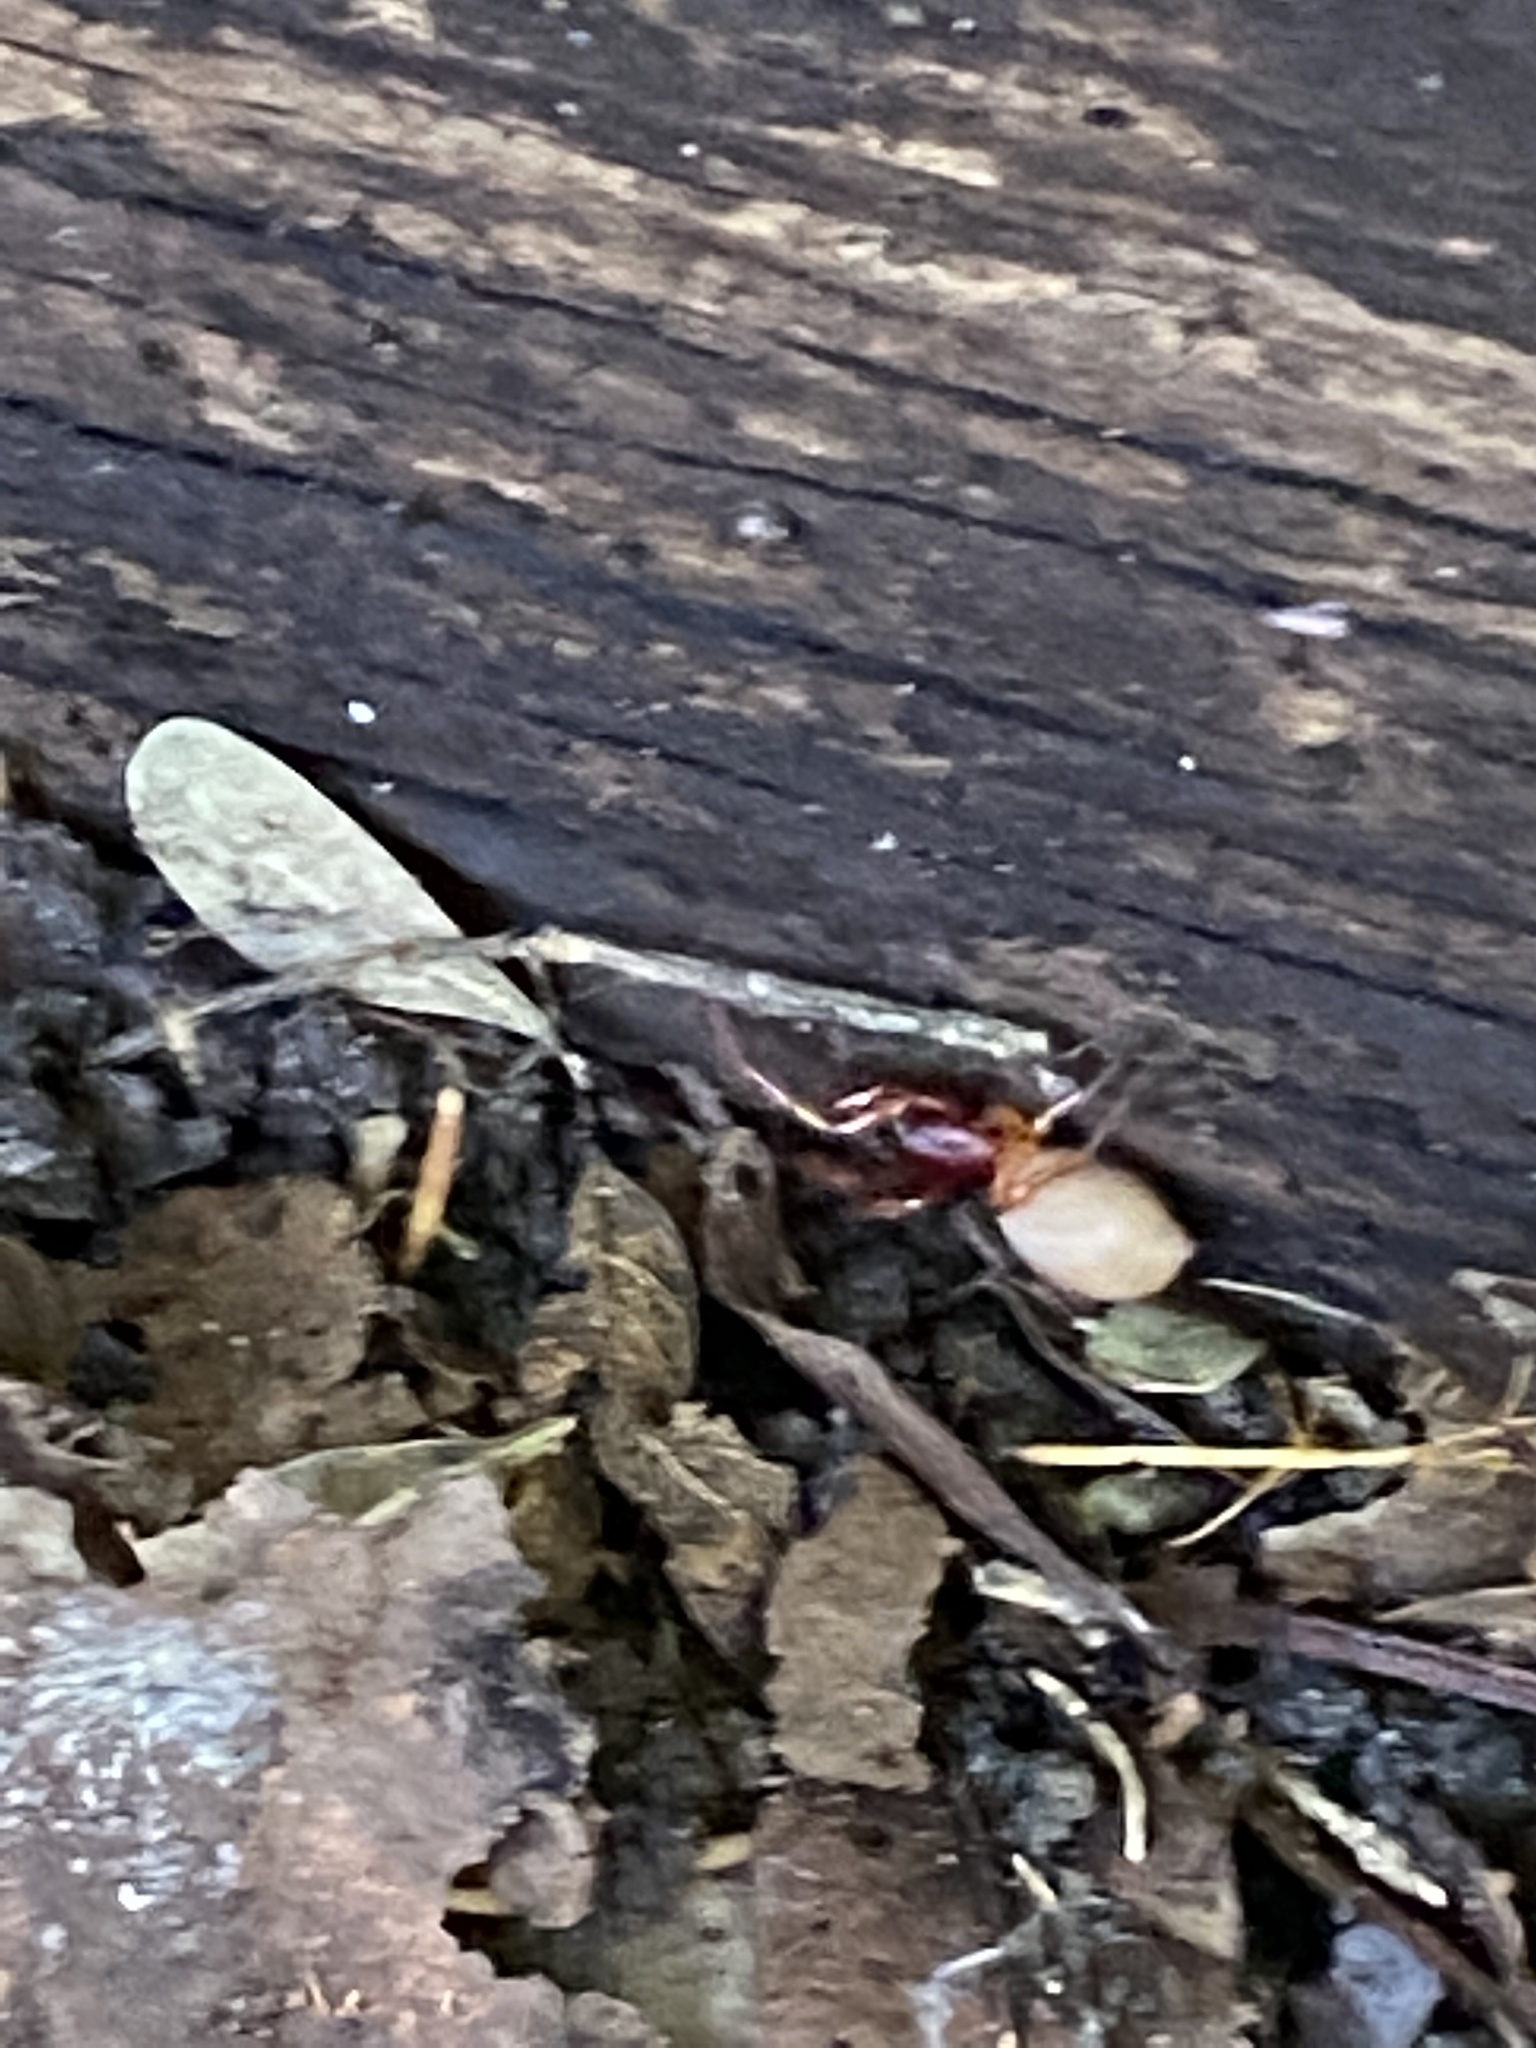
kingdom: Animalia
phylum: Arthropoda
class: Arachnida
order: Araneae
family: Dysderidae
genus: Dysdera
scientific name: Dysdera crocata
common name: Woodlouse spider
